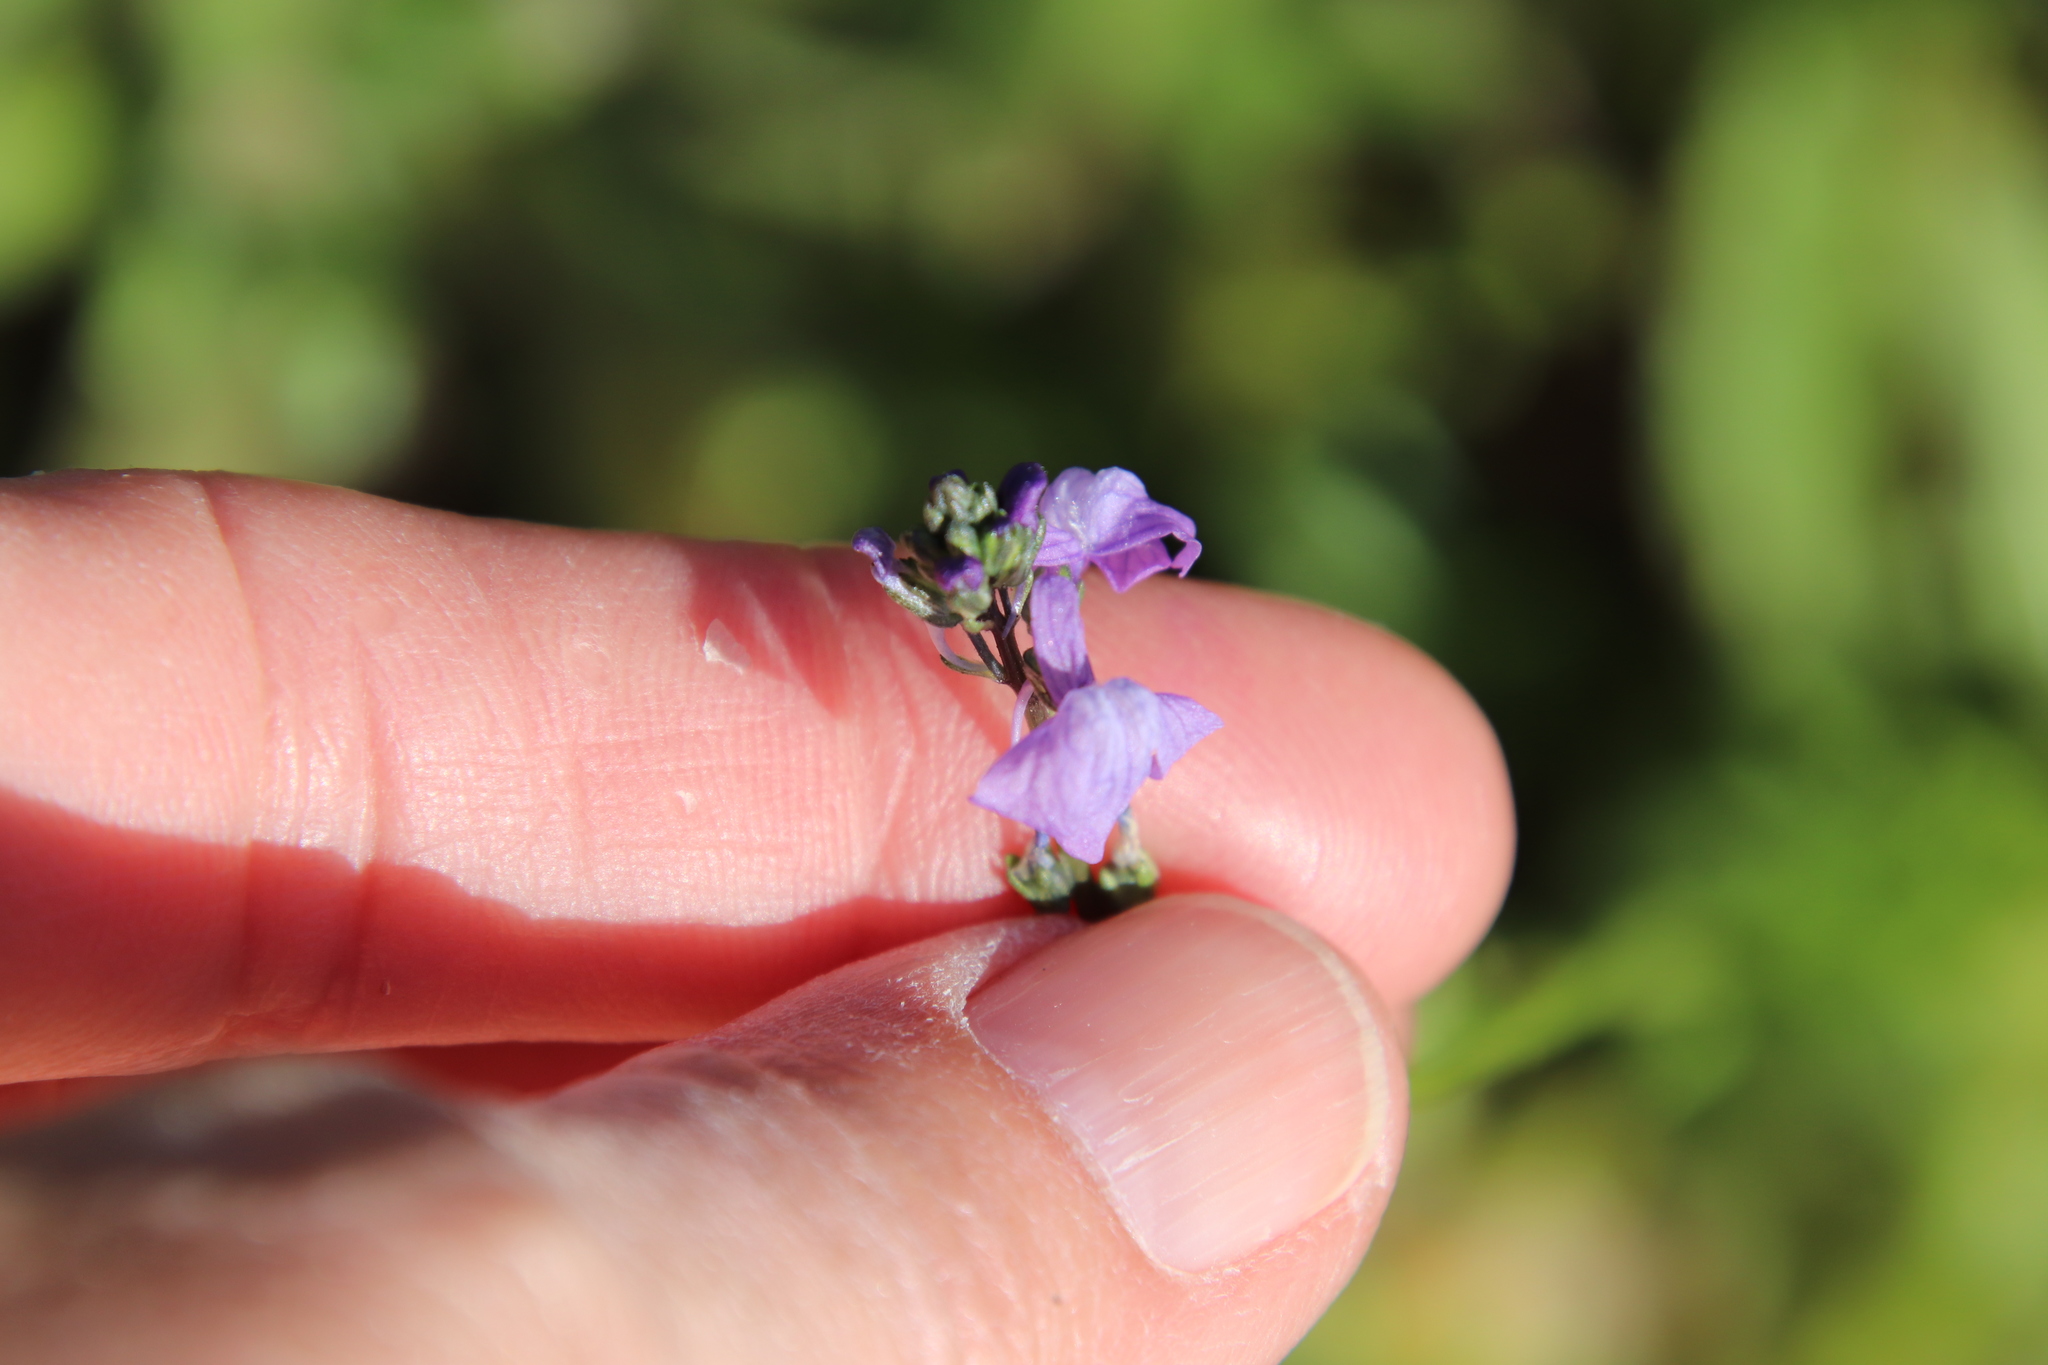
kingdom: Plantae
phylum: Tracheophyta
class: Magnoliopsida
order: Lamiales
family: Plantaginaceae
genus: Nuttallanthus
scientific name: Nuttallanthus texanus
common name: Texas toadflax
